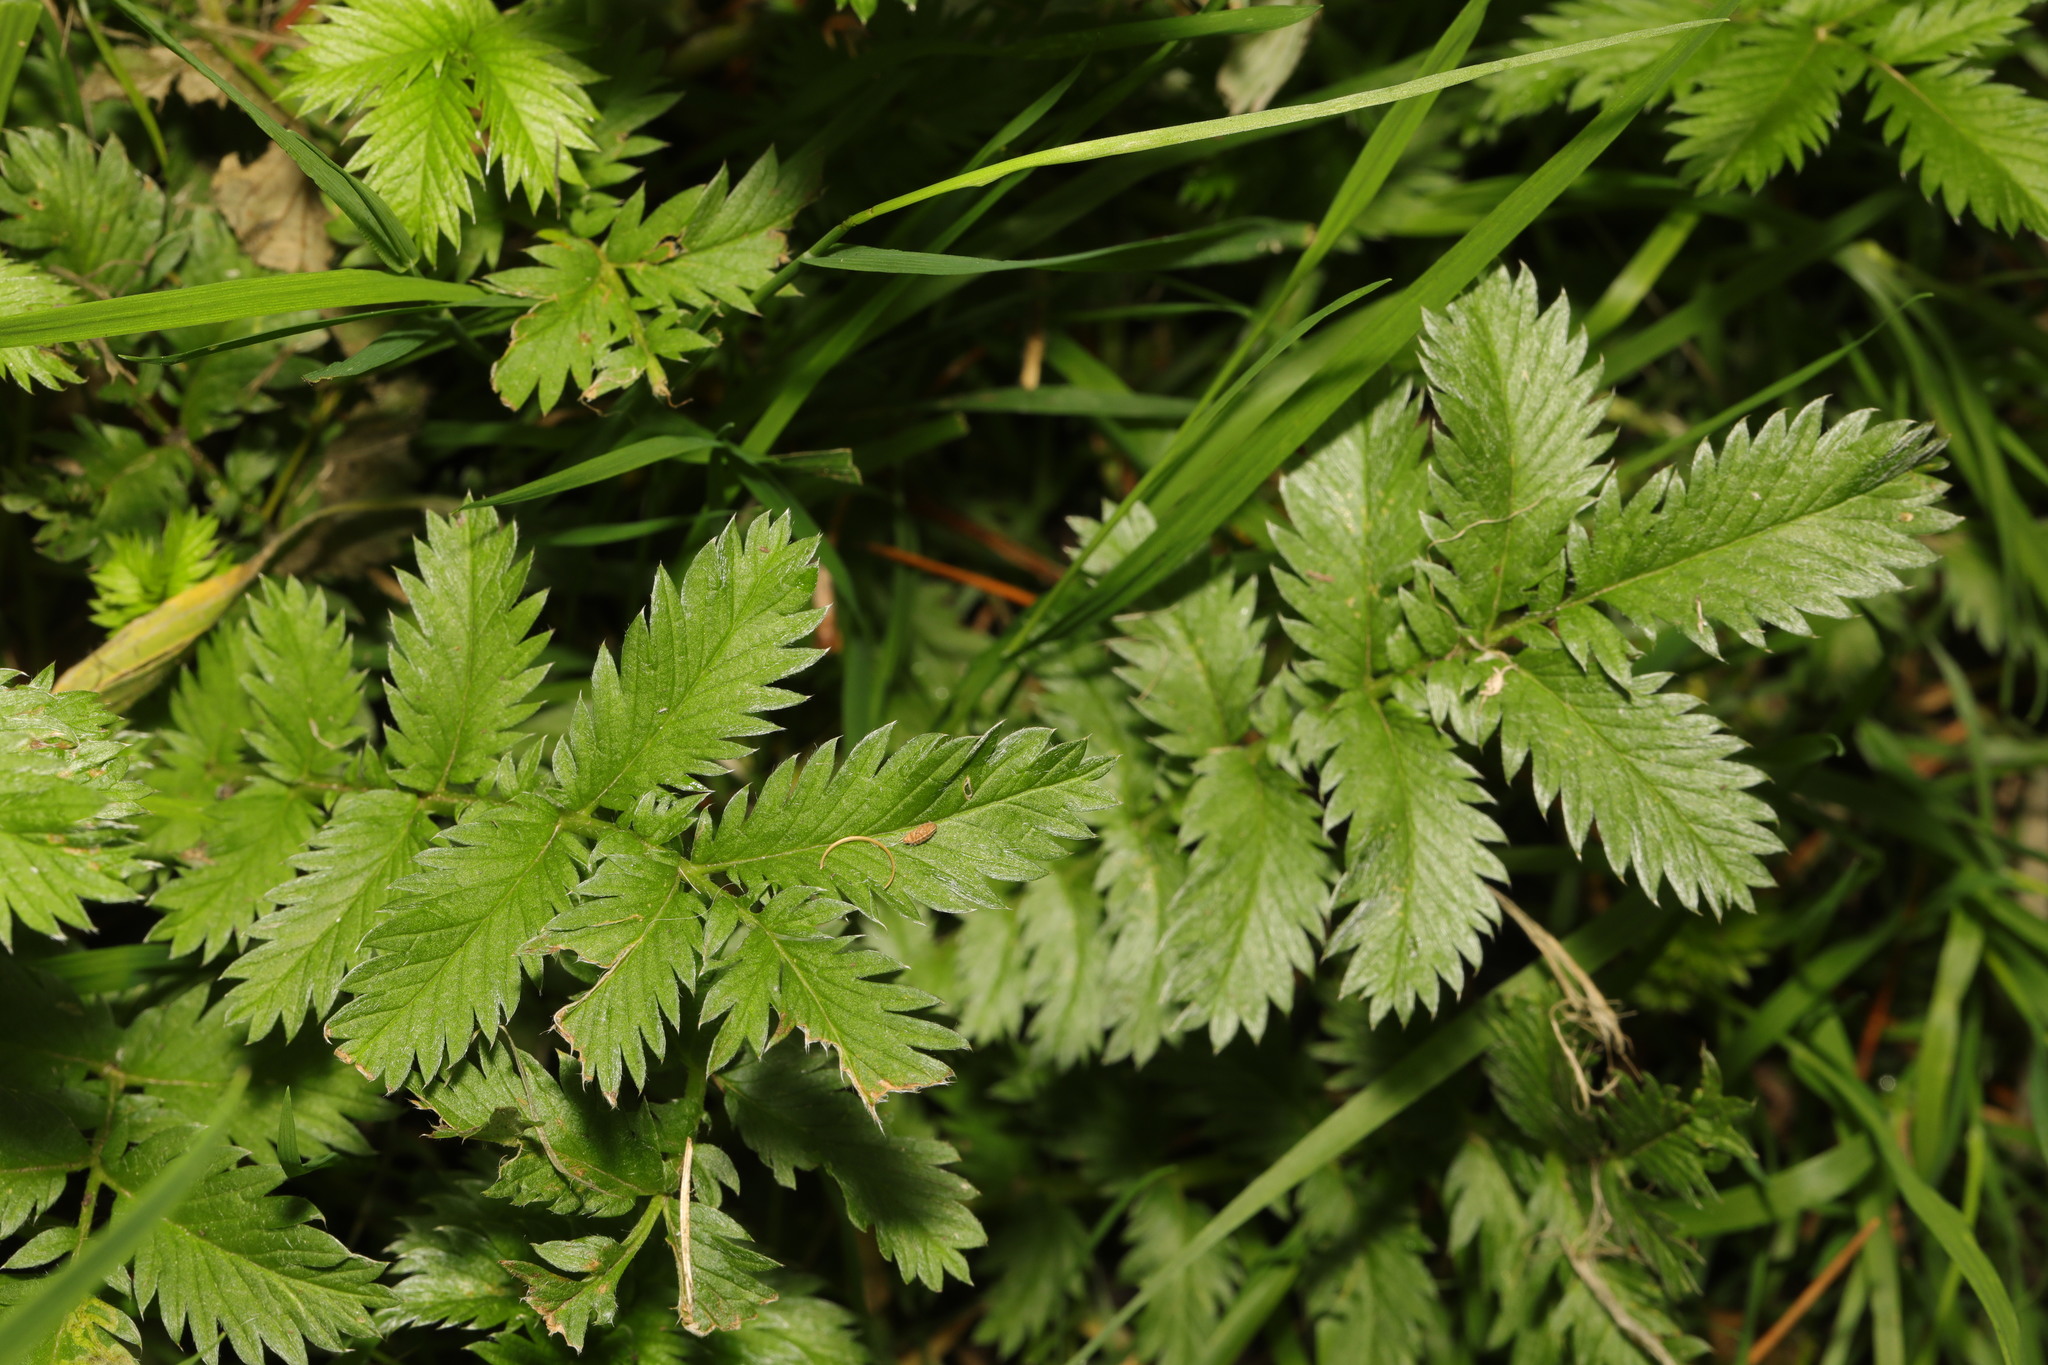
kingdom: Plantae
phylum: Tracheophyta
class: Magnoliopsida
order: Rosales
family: Rosaceae
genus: Argentina
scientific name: Argentina anserina
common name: Common silverweed
